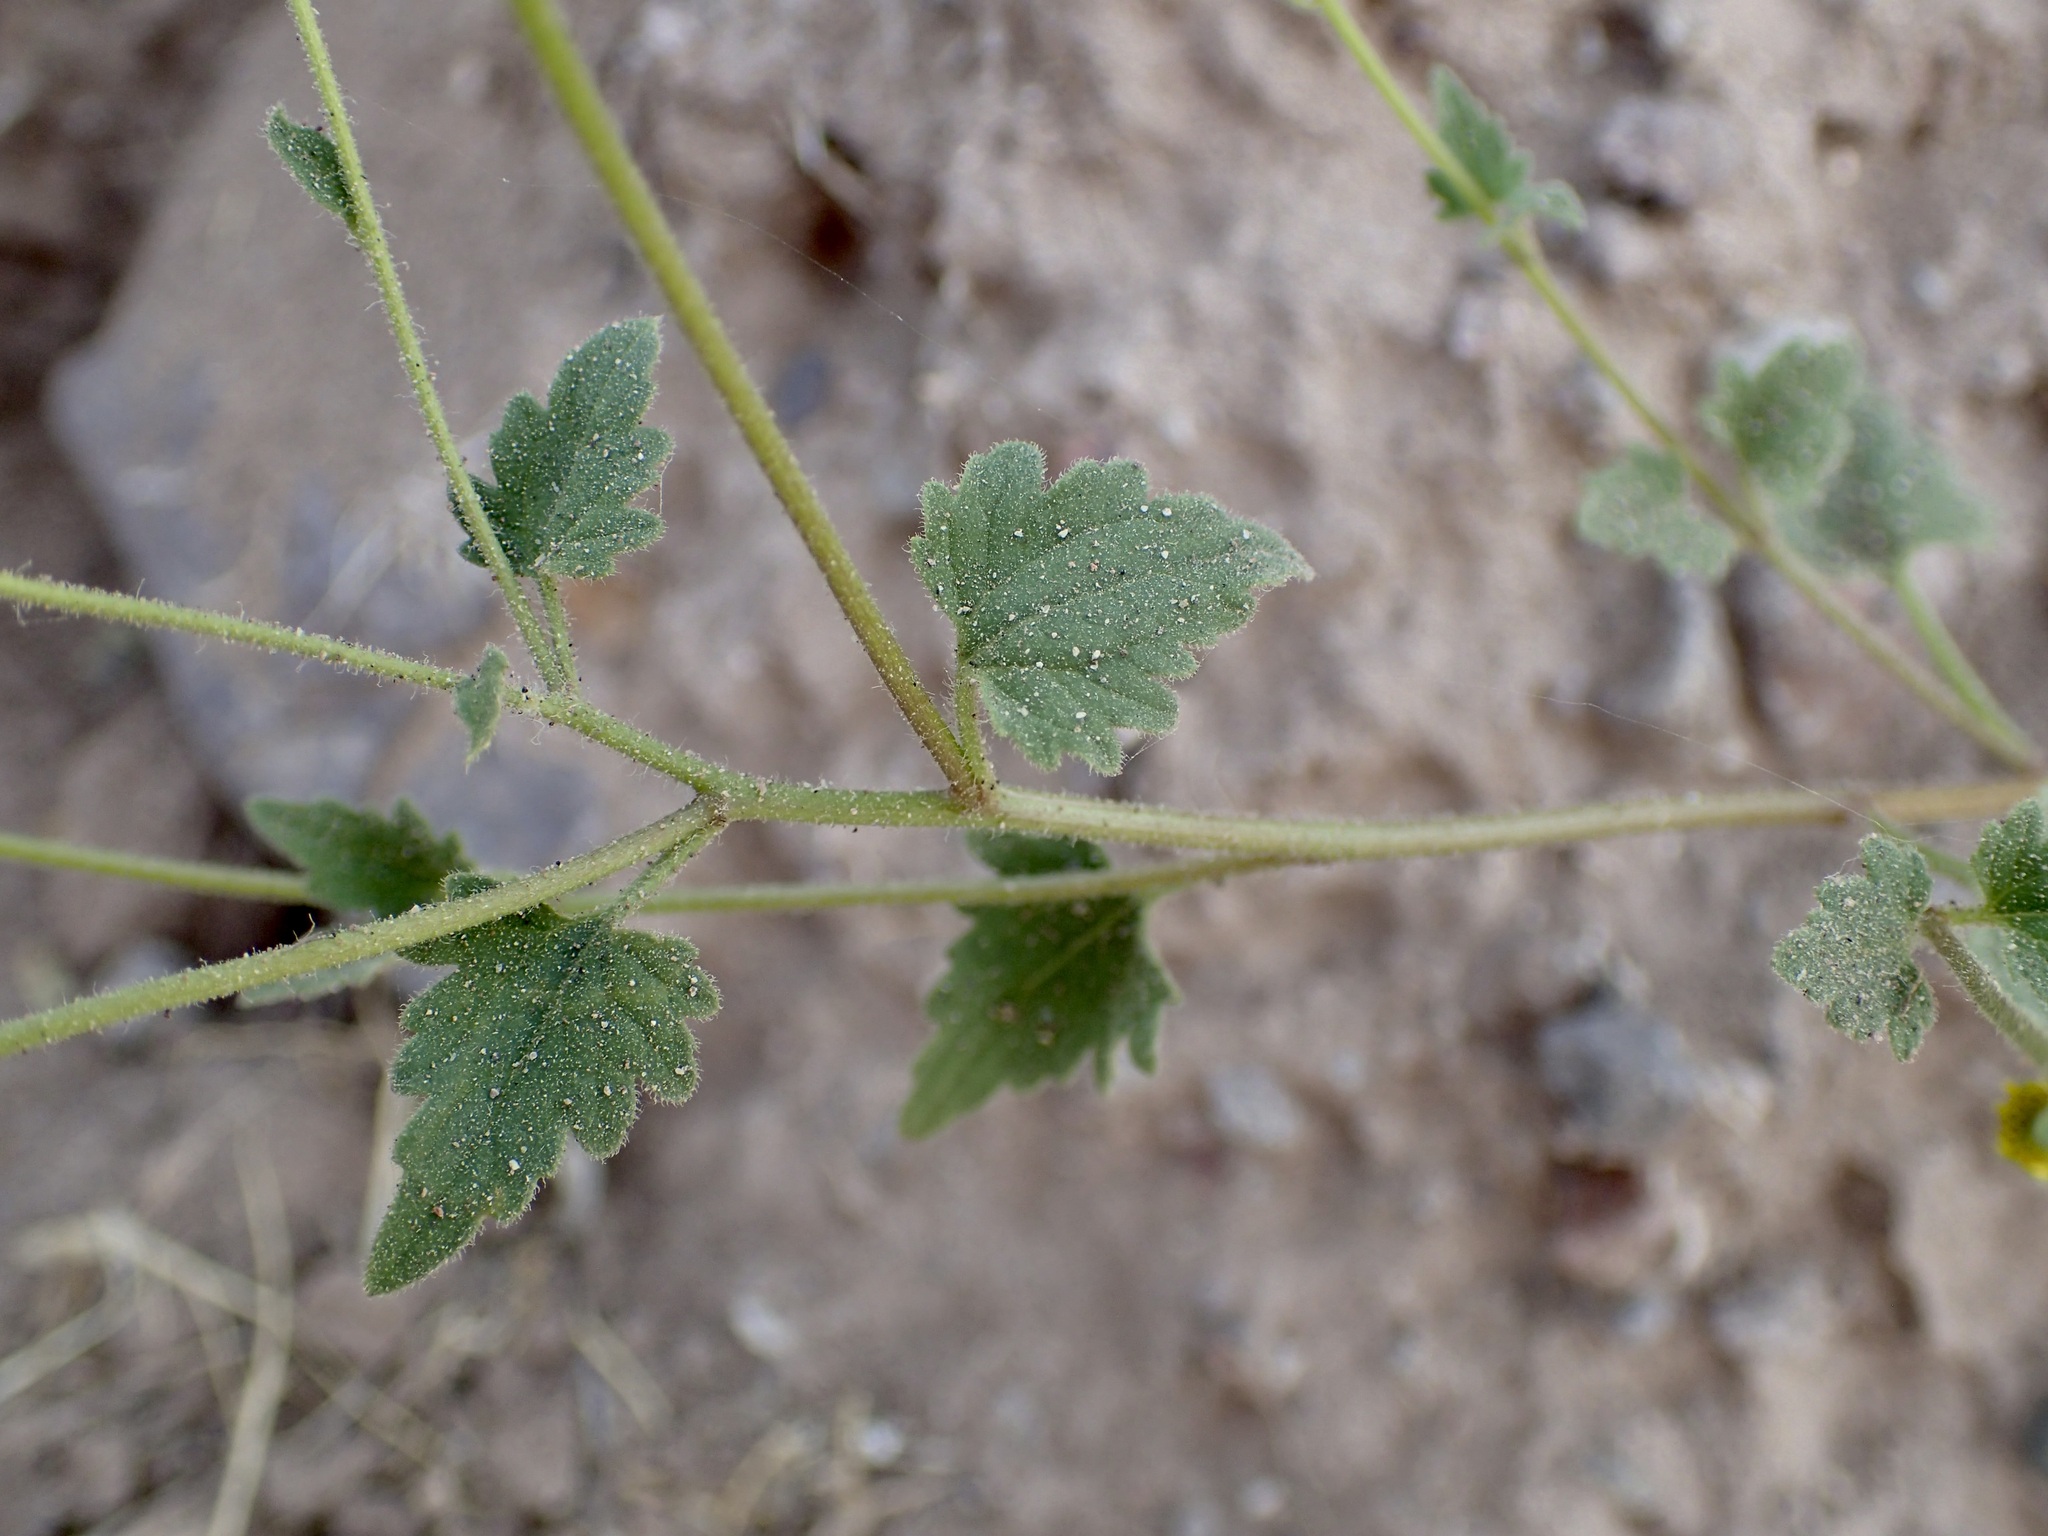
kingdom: Plantae
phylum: Tracheophyta
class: Magnoliopsida
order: Asterales
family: Asteraceae
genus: Perityle
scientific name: Perityle californica
